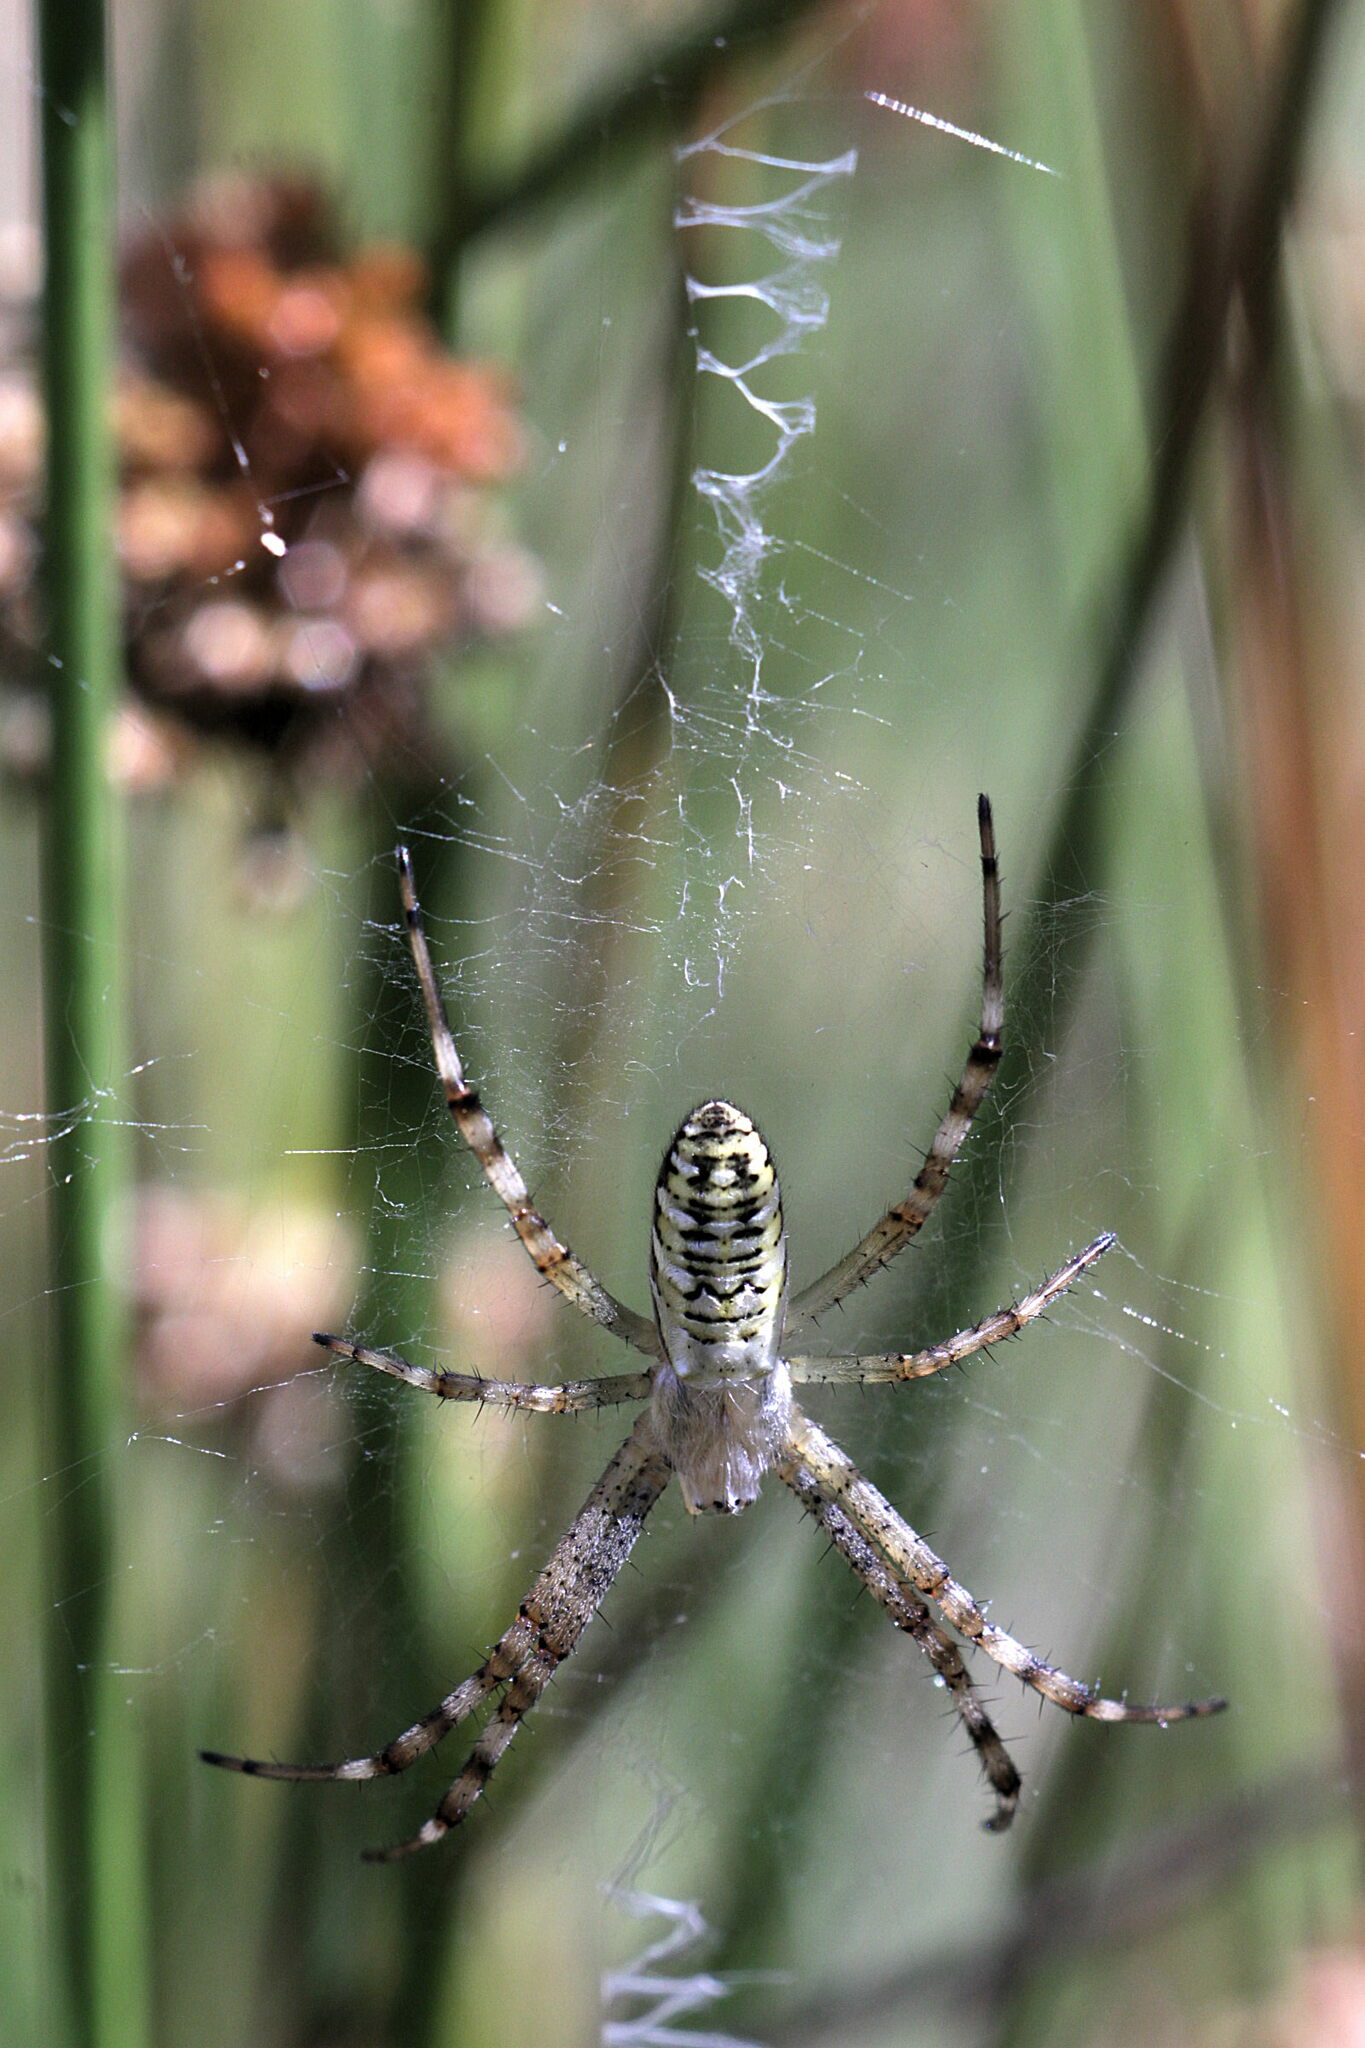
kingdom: Animalia
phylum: Arthropoda
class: Arachnida
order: Araneae
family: Araneidae
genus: Argiope
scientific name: Argiope bruennichi
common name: Wasp spider
